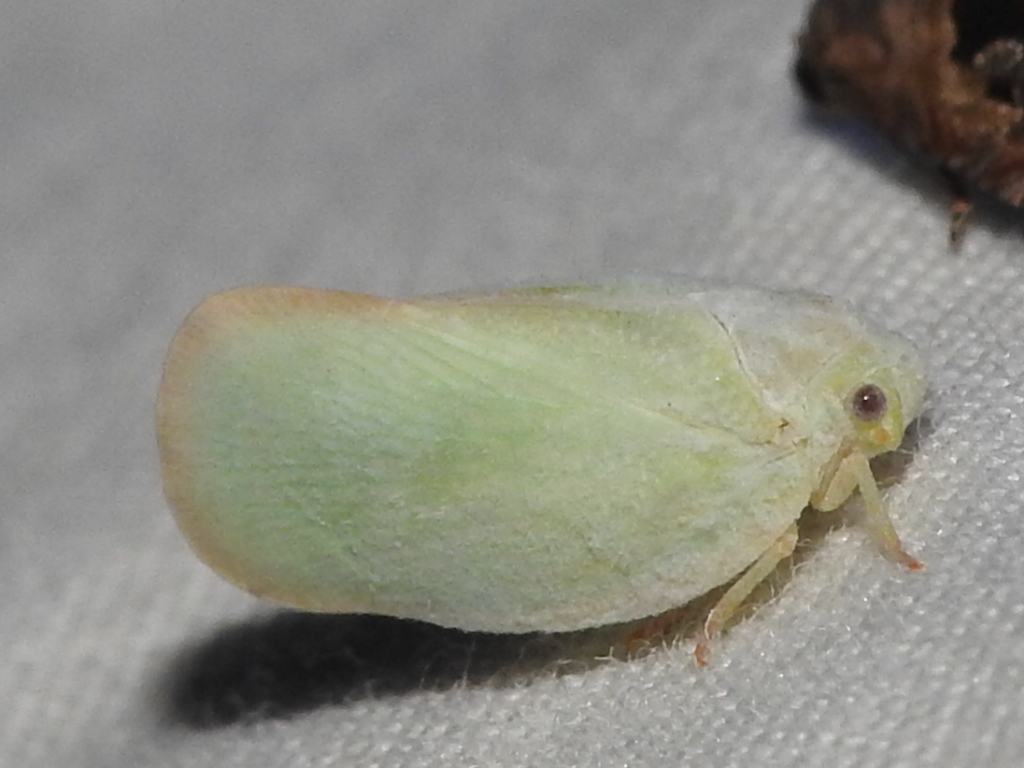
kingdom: Animalia
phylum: Arthropoda
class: Insecta
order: Hemiptera
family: Flatidae
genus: Ormenoides
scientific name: Ormenoides venusta
